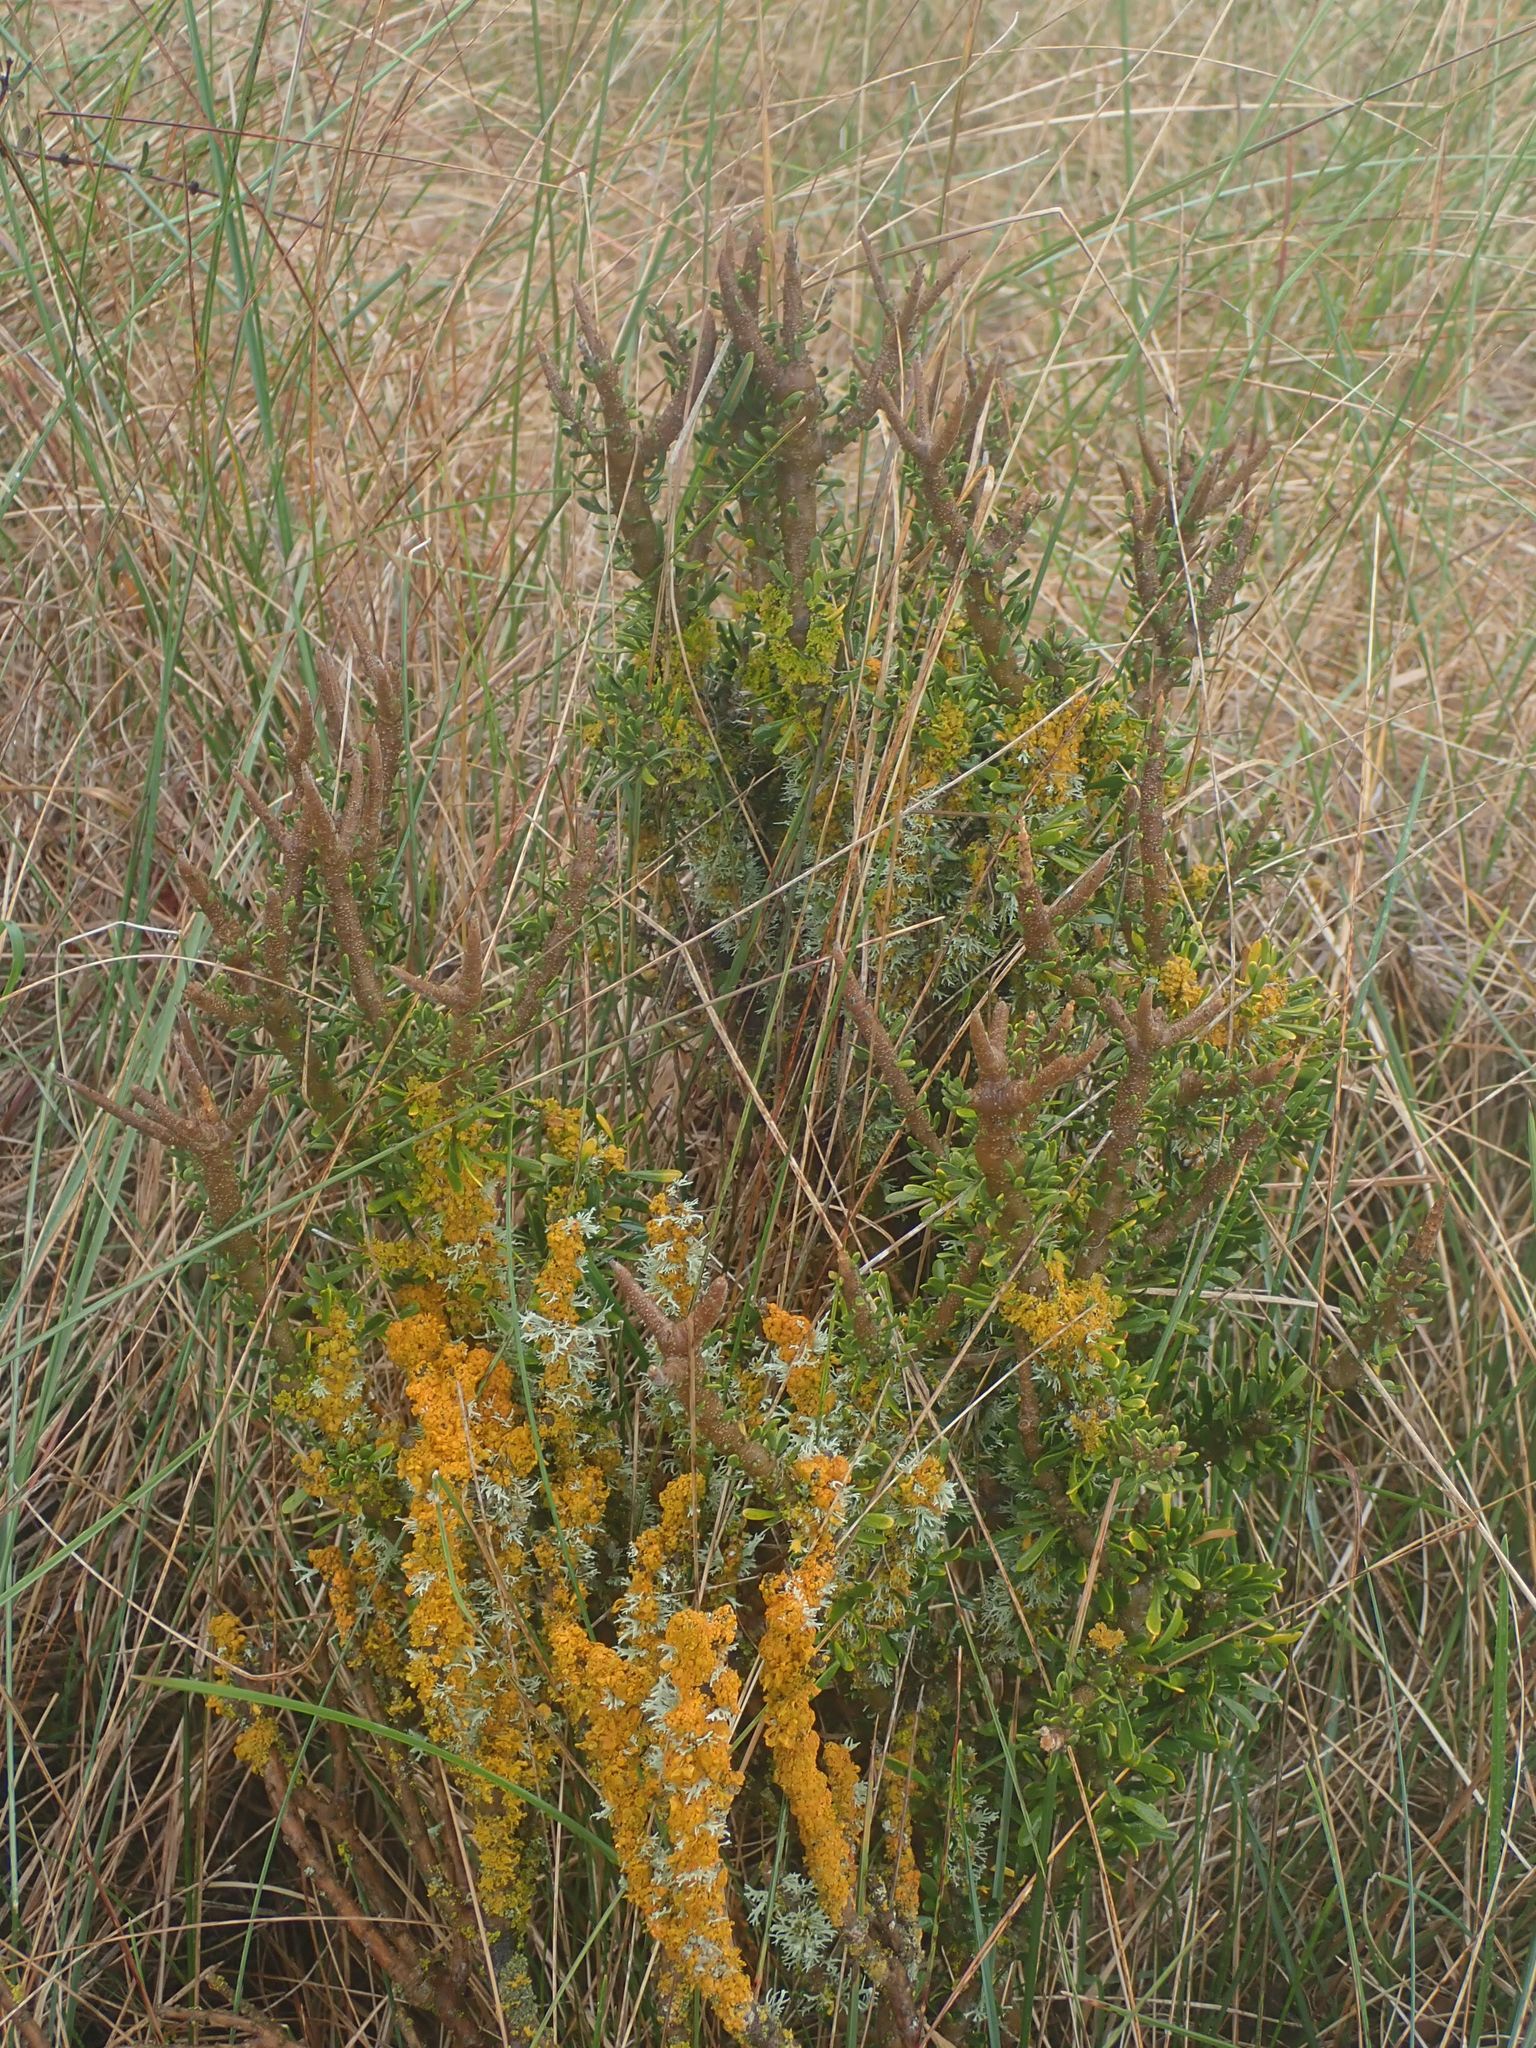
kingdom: Plantae
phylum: Tracheophyta
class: Magnoliopsida
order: Malpighiales
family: Violaceae
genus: Melicytus
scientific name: Melicytus alpinus
